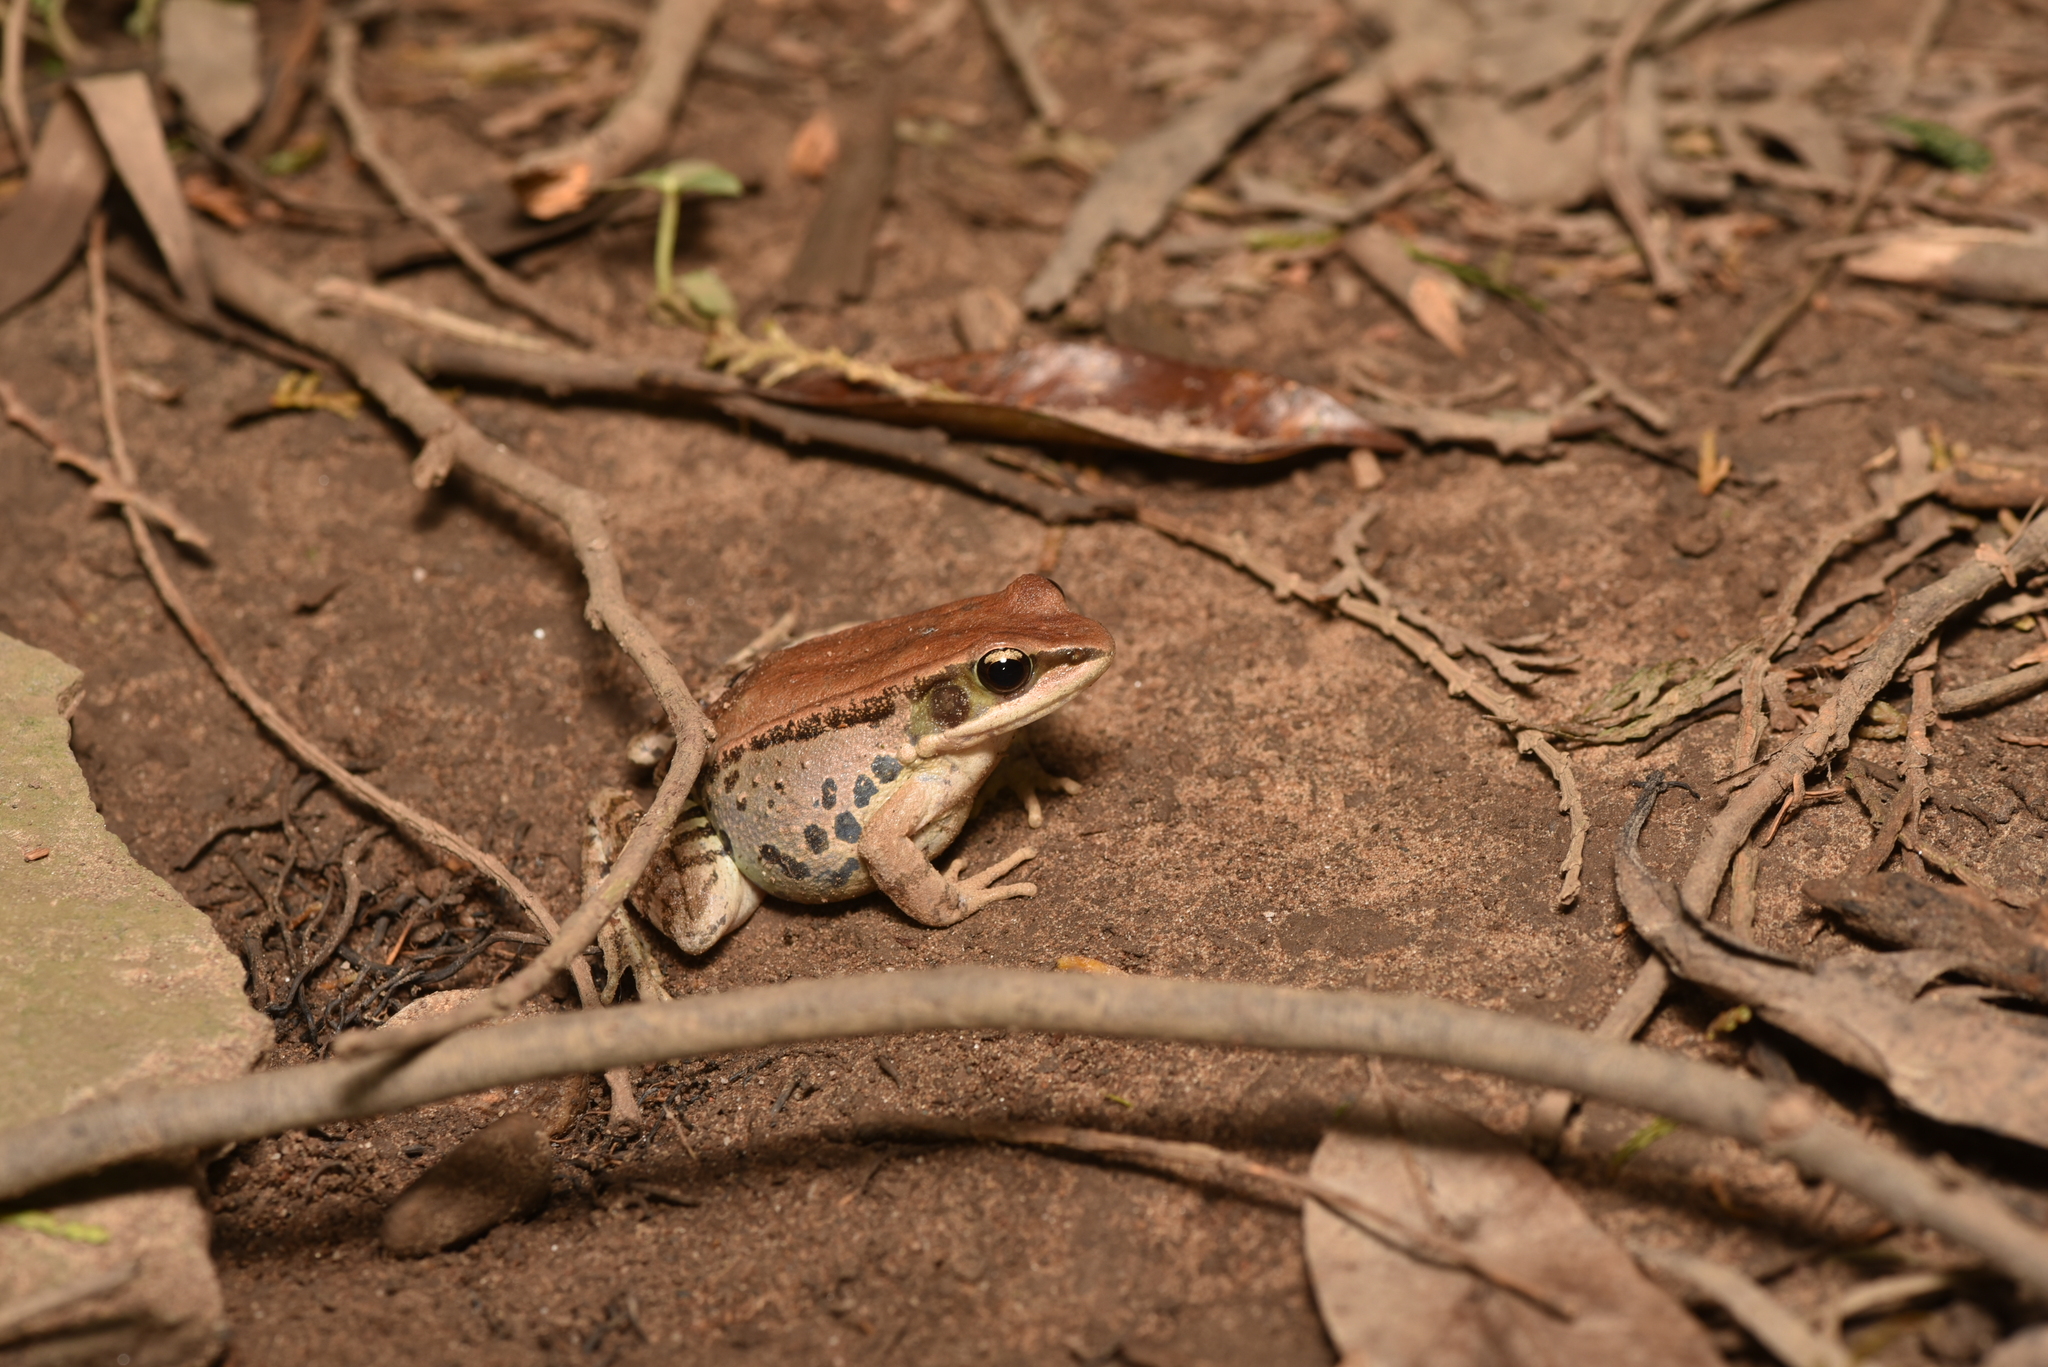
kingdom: Animalia
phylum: Chordata
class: Amphibia
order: Anura
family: Ranidae
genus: Hylarana
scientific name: Hylarana latouchii
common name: Broad-folded frog
